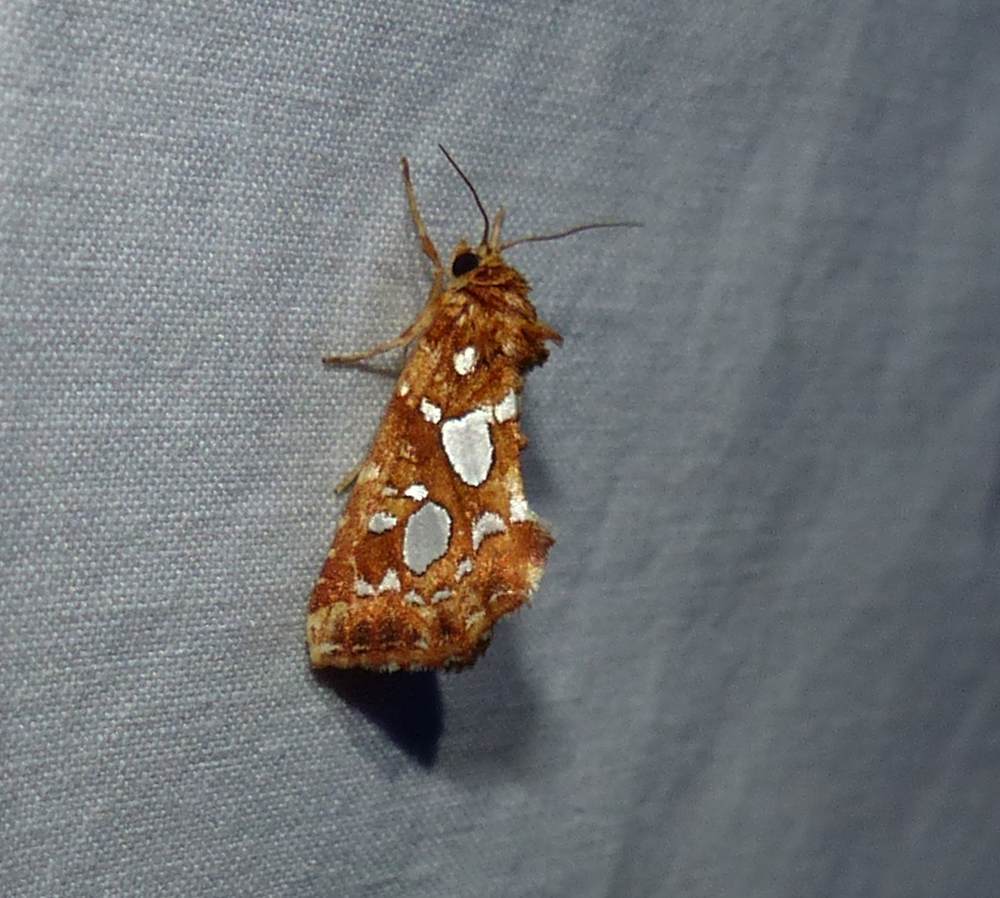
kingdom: Animalia
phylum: Arthropoda
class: Insecta
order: Lepidoptera
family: Noctuidae
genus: Callopistria
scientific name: Callopistria cordata
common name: Silver-spotted fern moth
